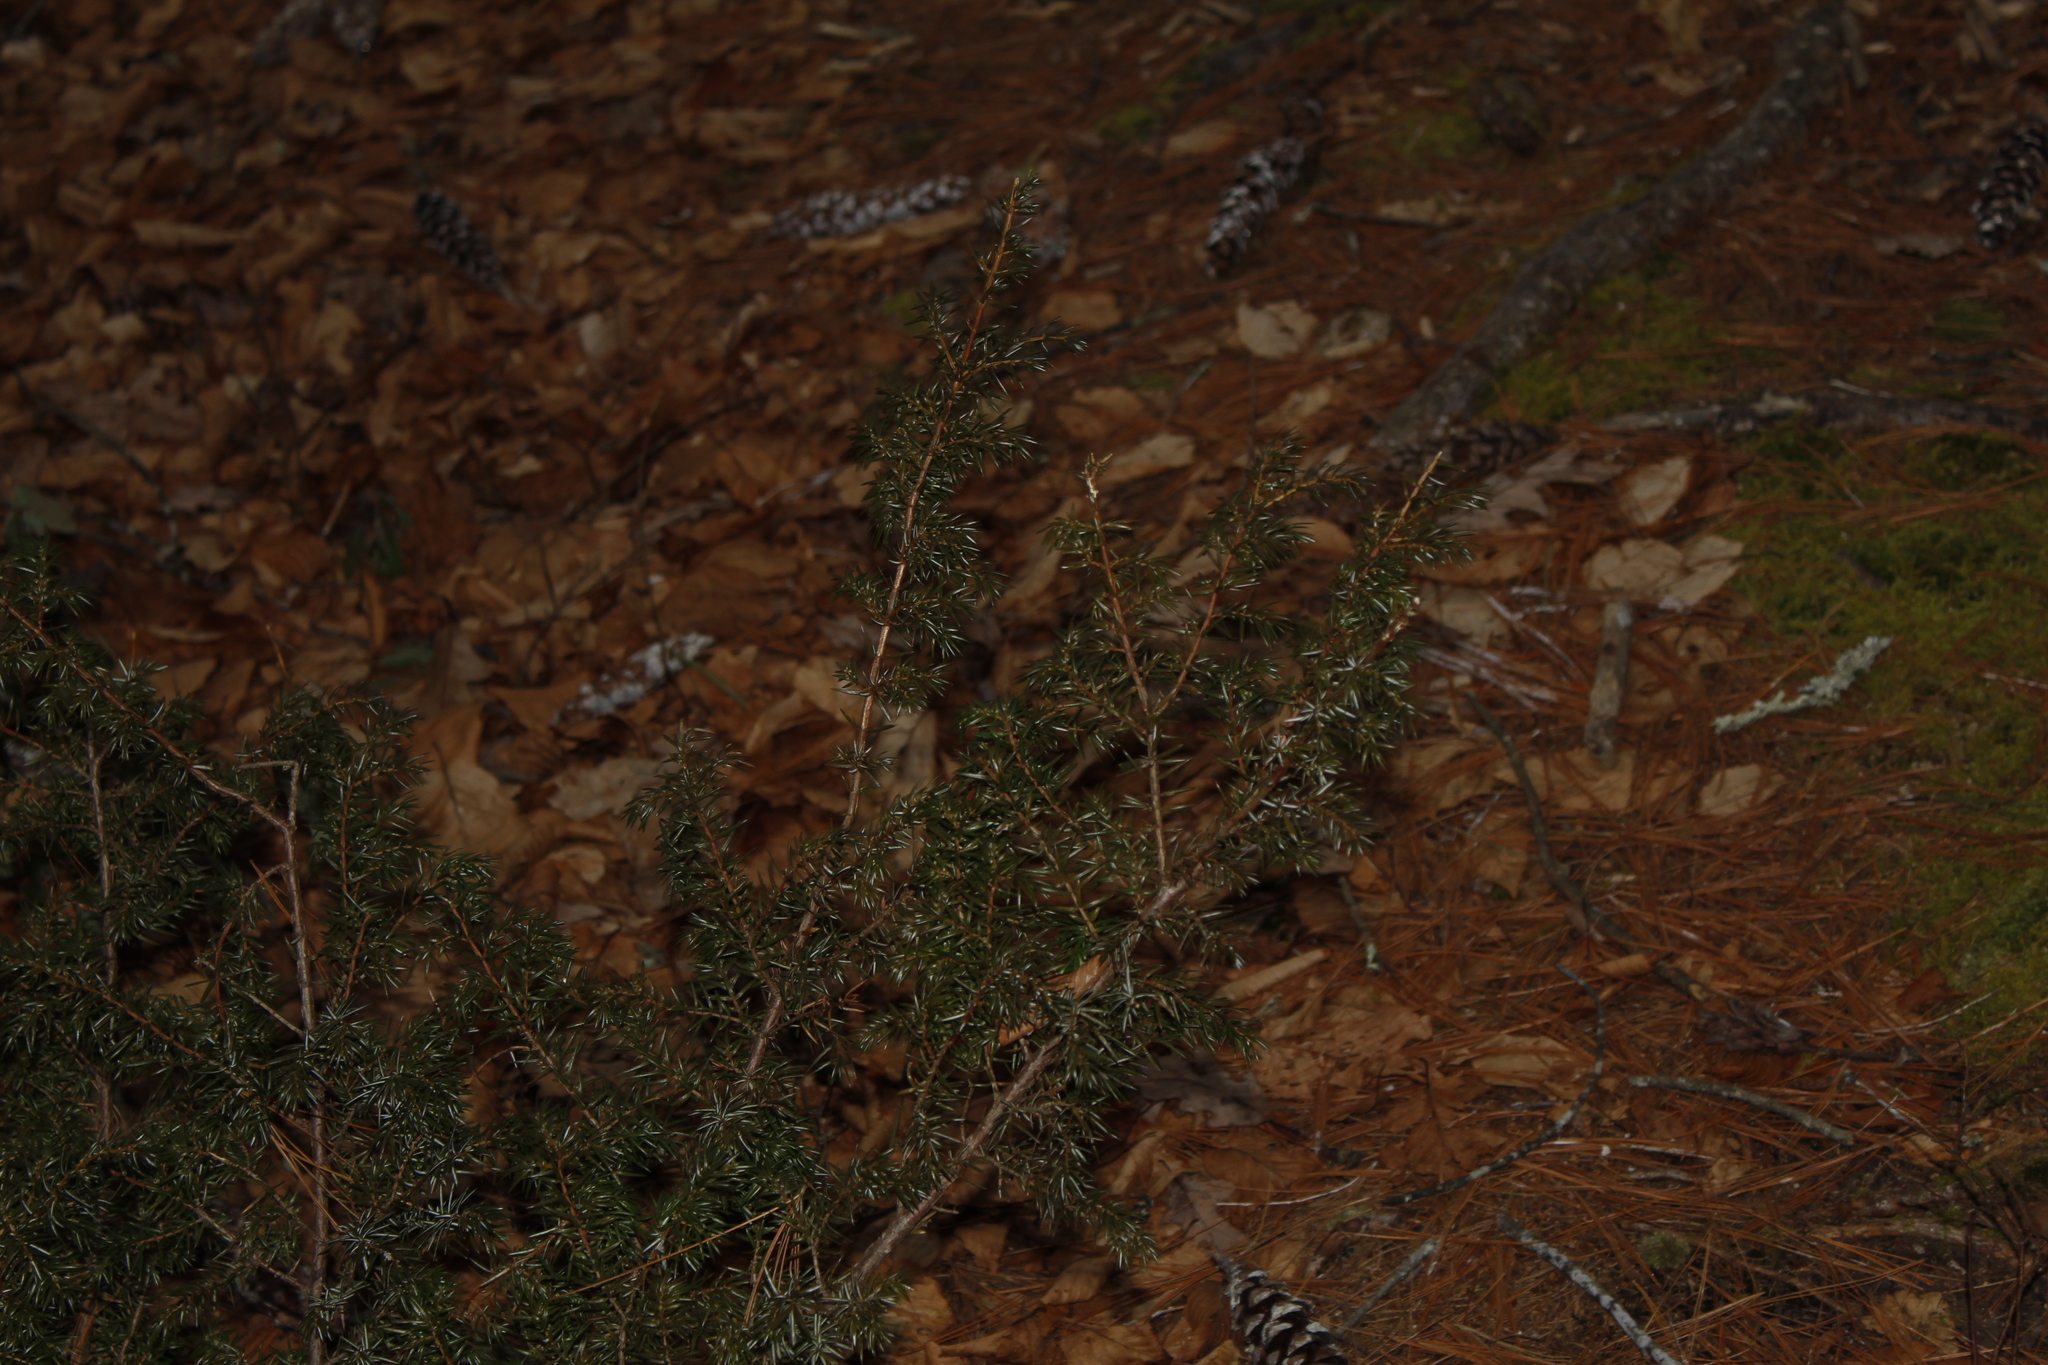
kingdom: Plantae
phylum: Tracheophyta
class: Pinopsida
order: Pinales
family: Cupressaceae
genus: Juniperus
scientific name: Juniperus communis
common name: Common juniper
